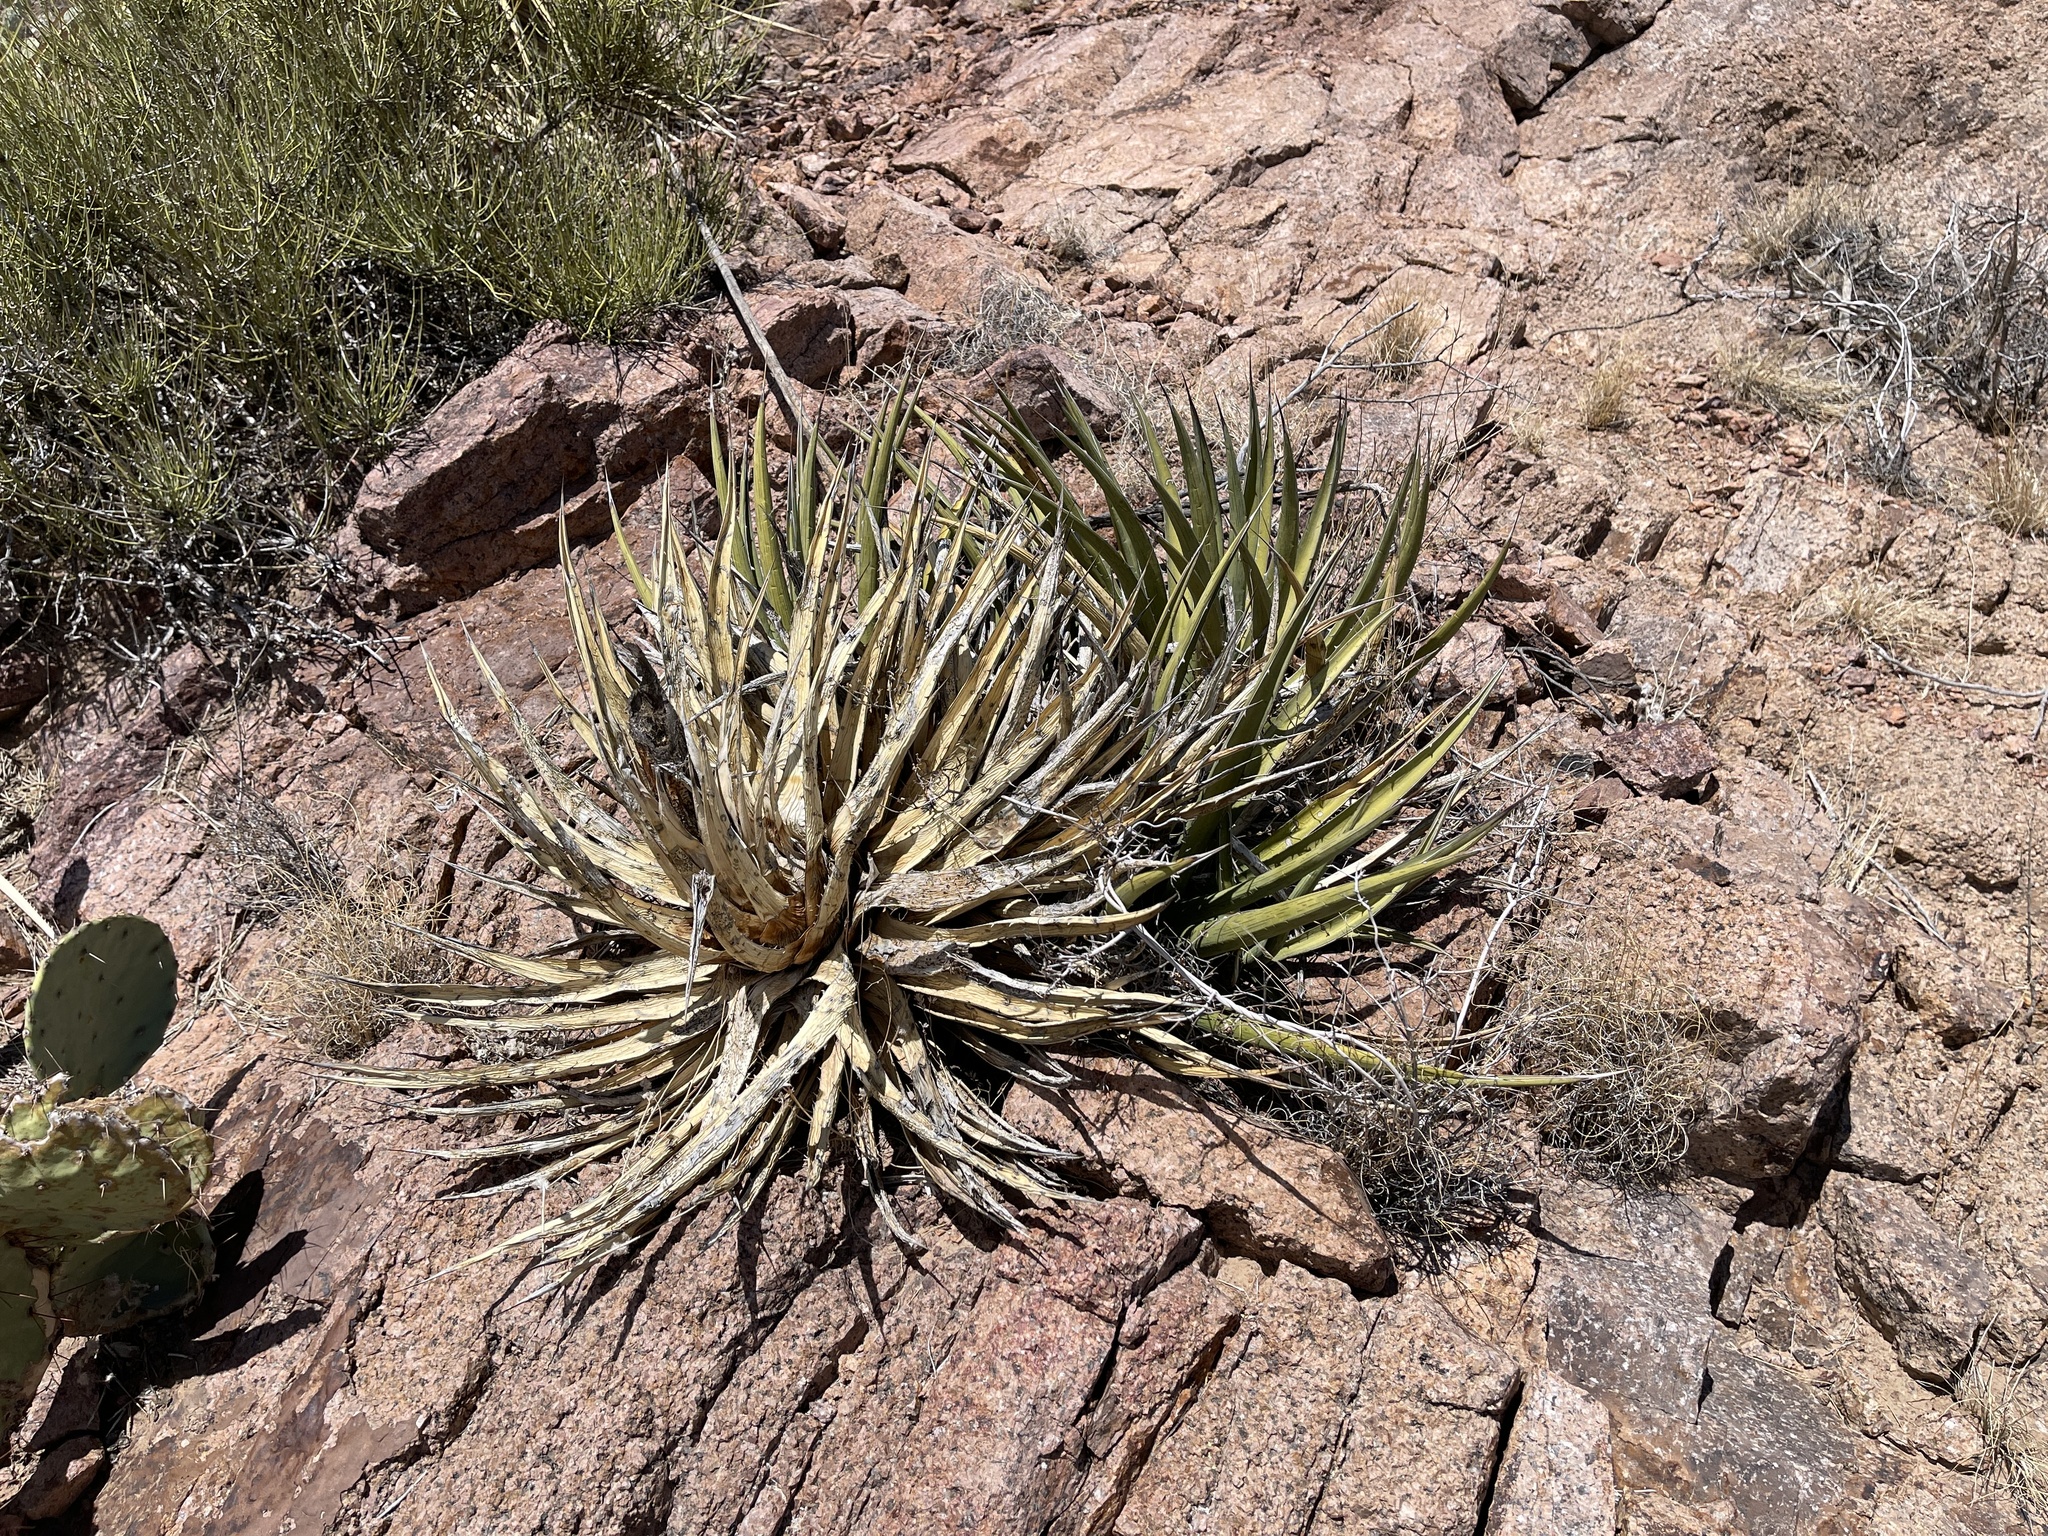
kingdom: Plantae
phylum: Tracheophyta
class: Liliopsida
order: Asparagales
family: Asparagaceae
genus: Agave
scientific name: Agave lechuguilla
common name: Lecheguilla agave
